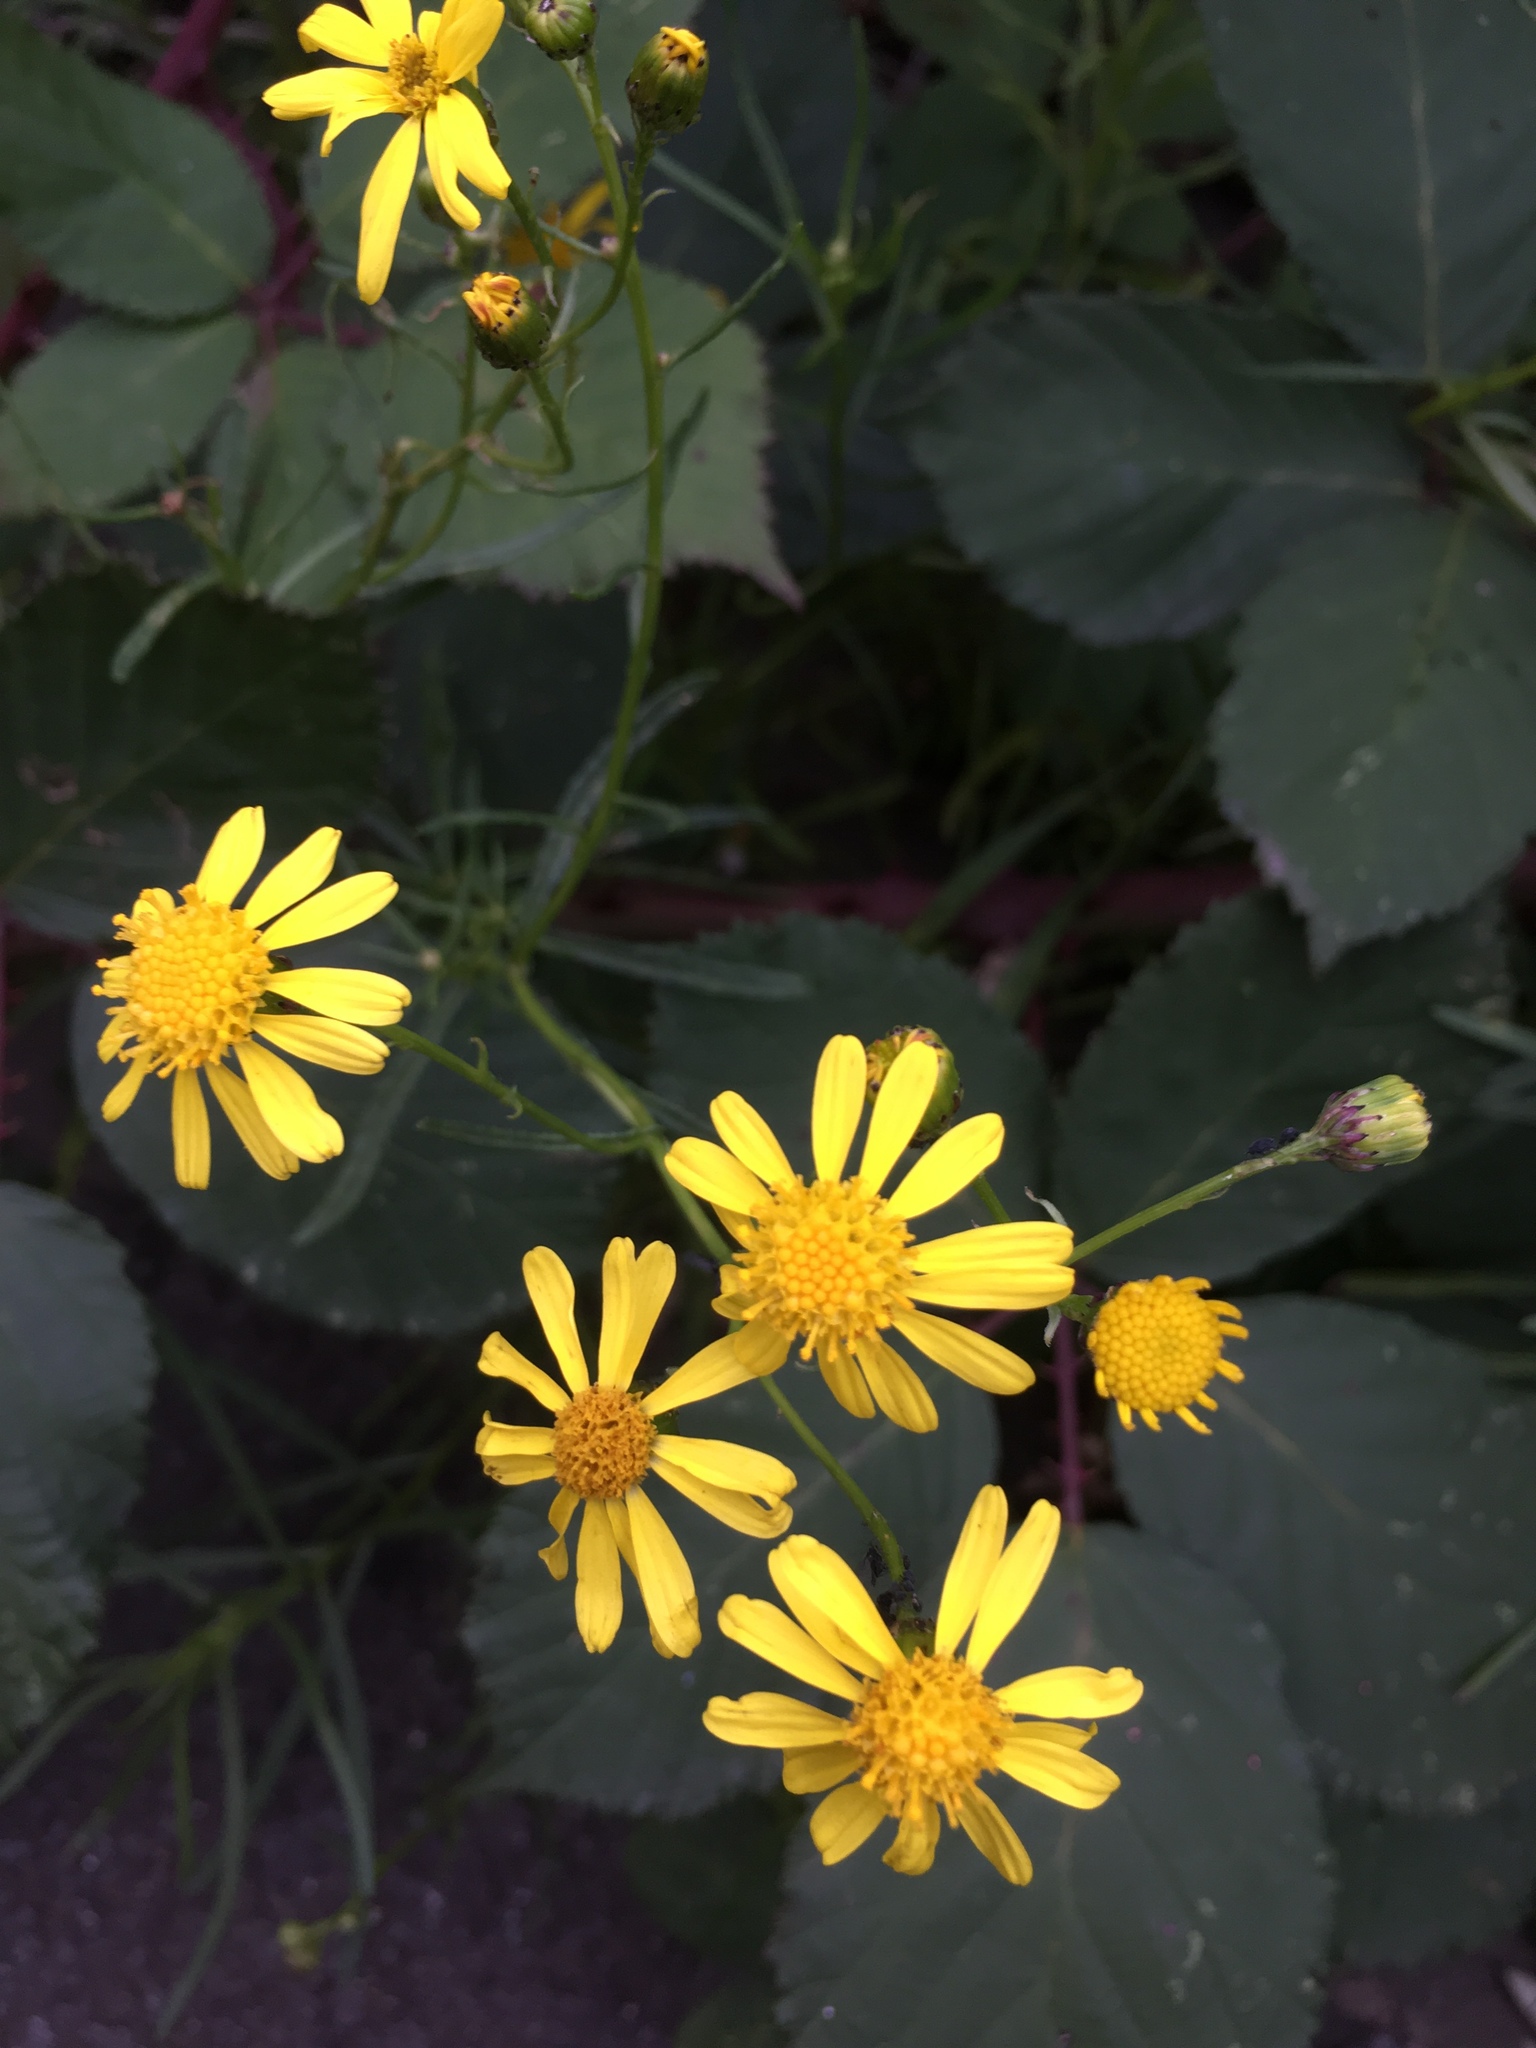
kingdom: Plantae
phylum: Tracheophyta
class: Magnoliopsida
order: Asterales
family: Asteraceae
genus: Senecio
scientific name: Senecio inaequidens
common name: Narrow-leaved ragwort
